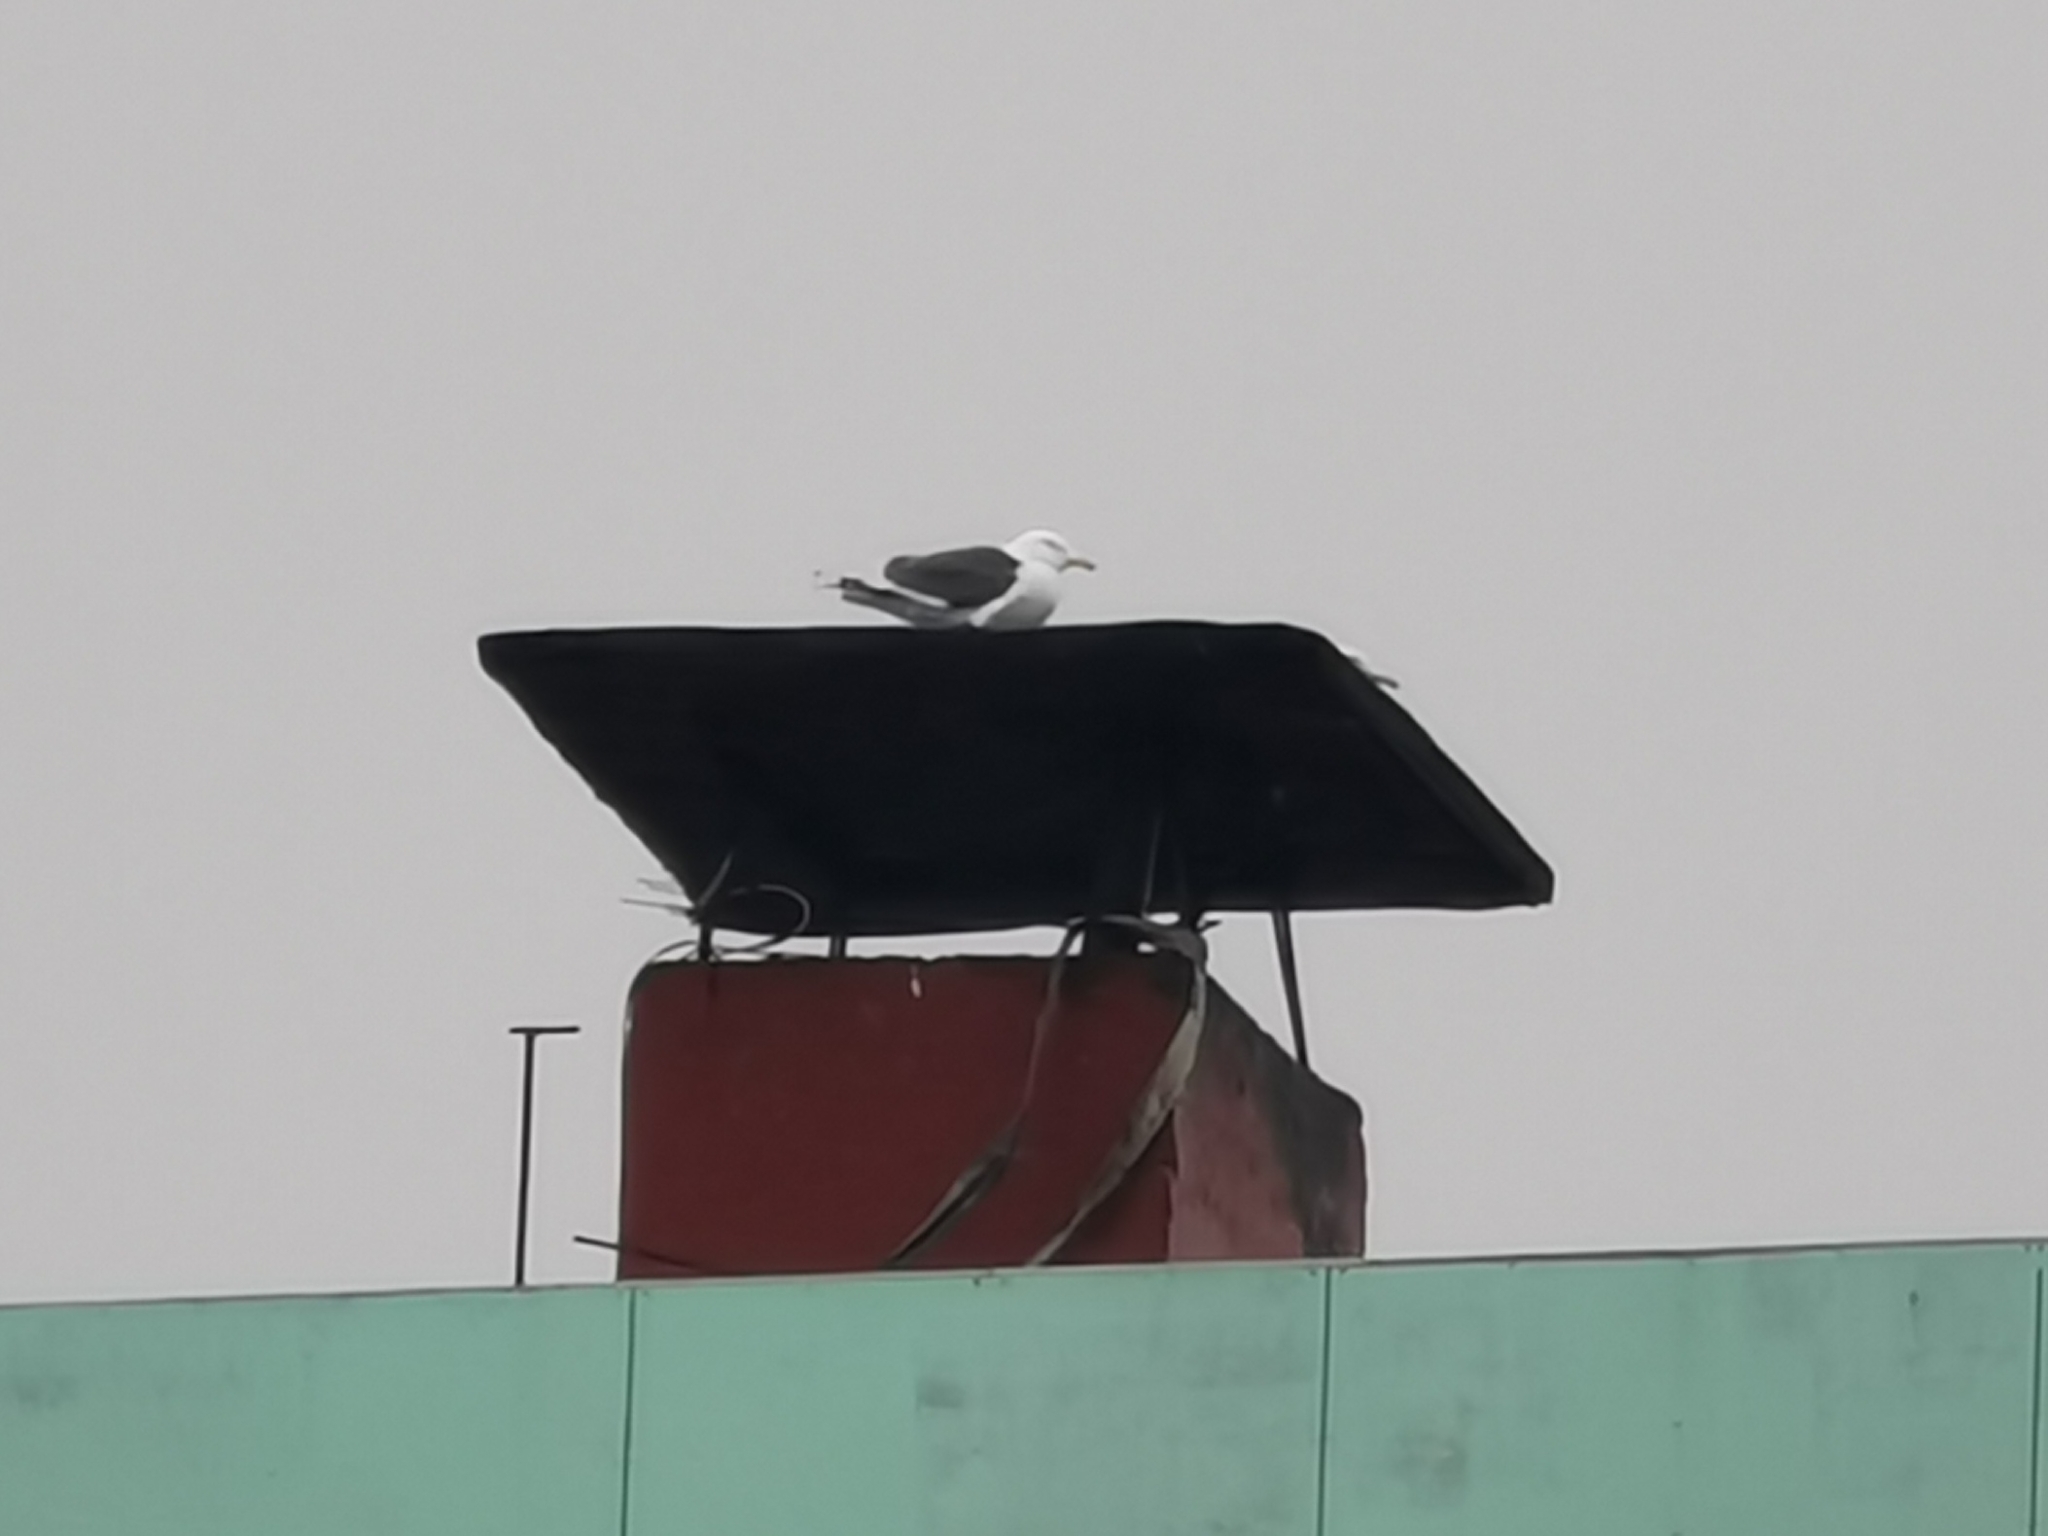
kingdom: Animalia
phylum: Chordata
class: Aves
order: Charadriiformes
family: Laridae
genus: Larus
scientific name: Larus schistisagus
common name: Slaty-backed gull
